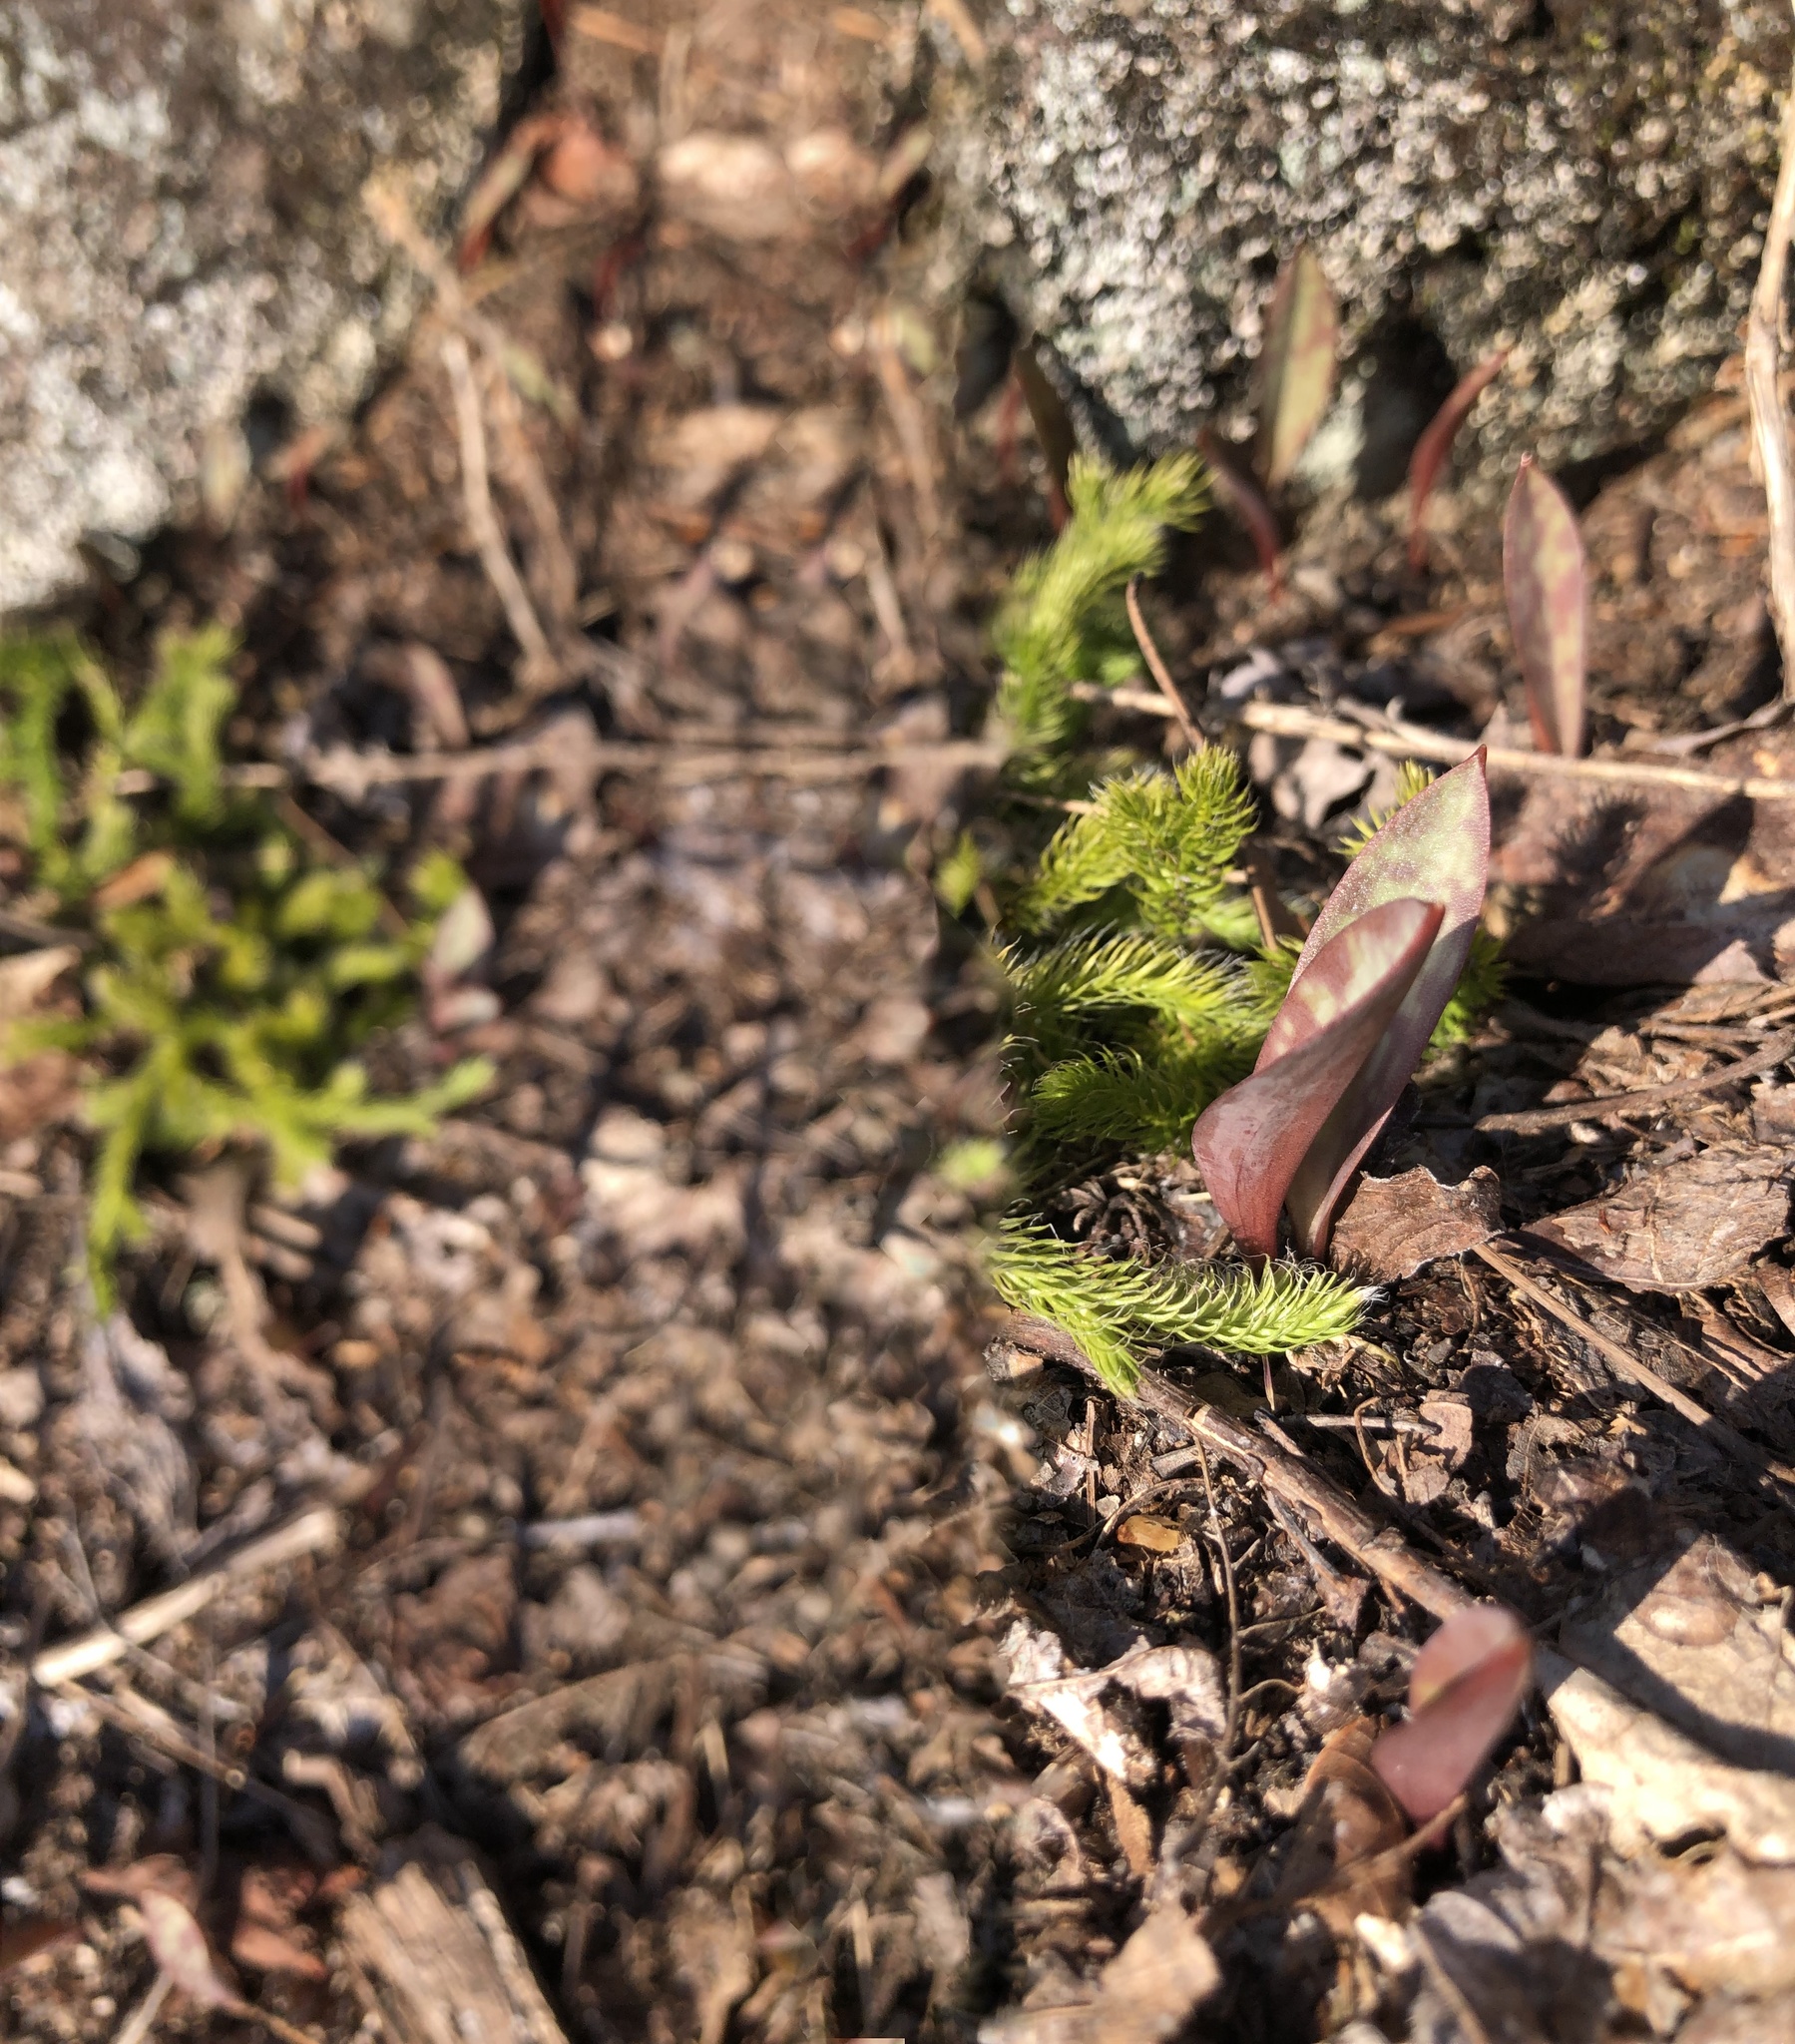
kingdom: Plantae
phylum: Tracheophyta
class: Lycopodiopsida
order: Lycopodiales
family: Lycopodiaceae
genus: Lycopodium
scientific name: Lycopodium clavatum
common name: Stag's-horn clubmoss
